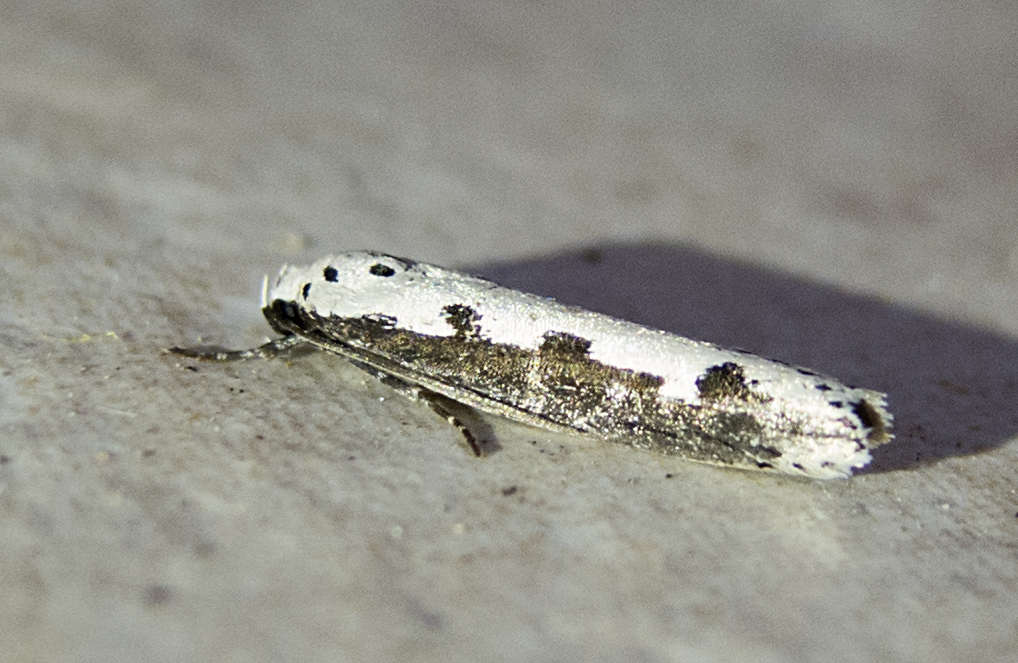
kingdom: Animalia
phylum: Arthropoda
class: Insecta
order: Lepidoptera
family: Ethmiidae
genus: Ethmia
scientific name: Ethmia bipunctella
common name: Bordered ermel
